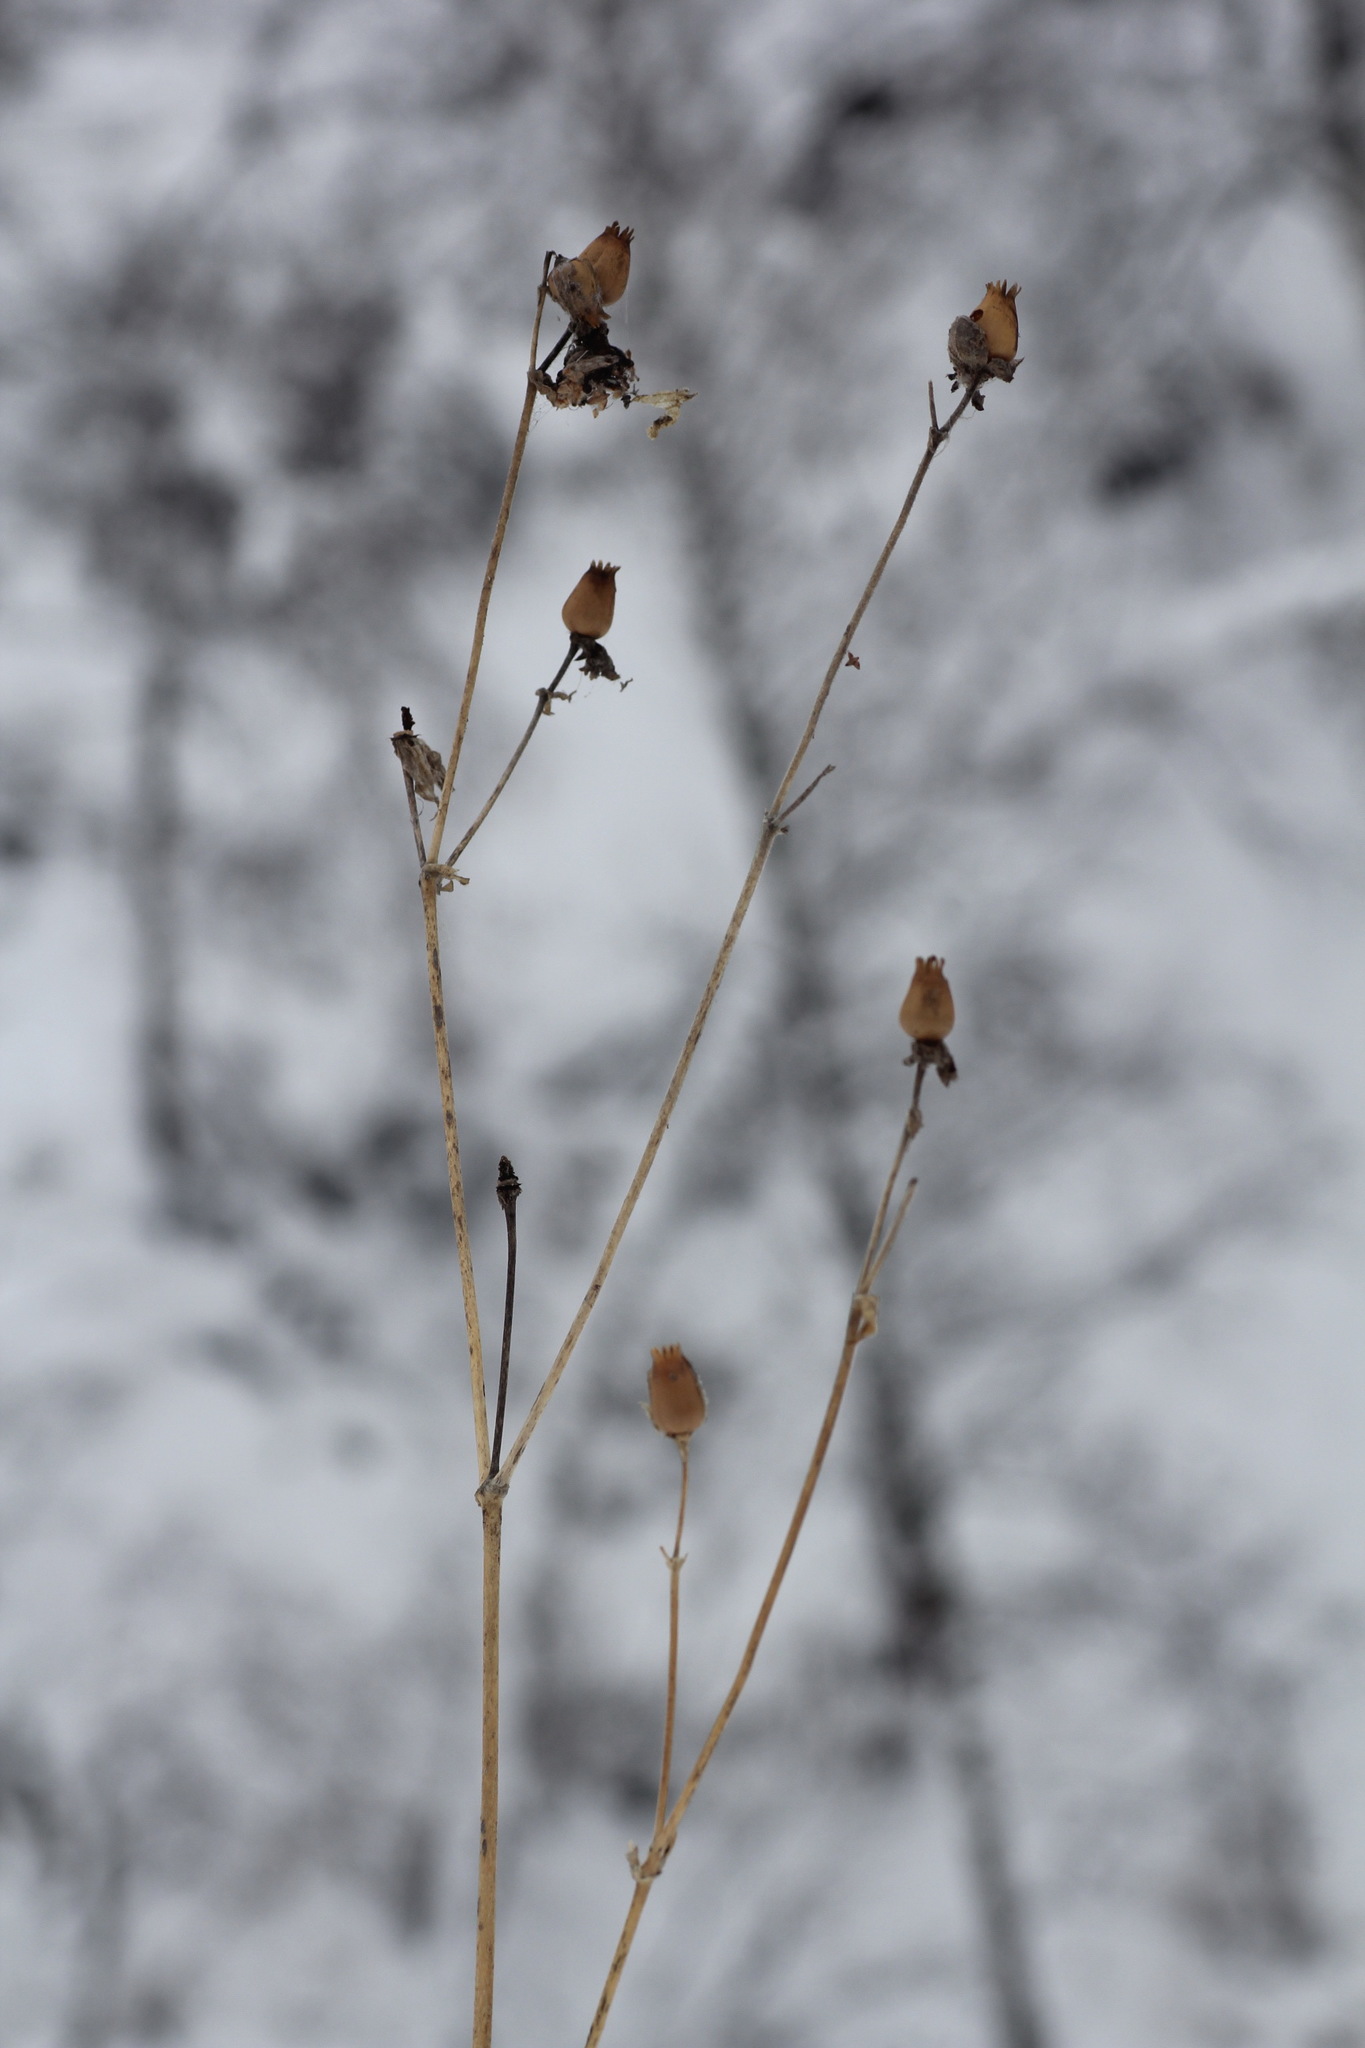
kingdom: Plantae
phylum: Tracheophyta
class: Magnoliopsida
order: Caryophyllales
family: Caryophyllaceae
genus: Silene
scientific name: Silene latifolia
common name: White campion
